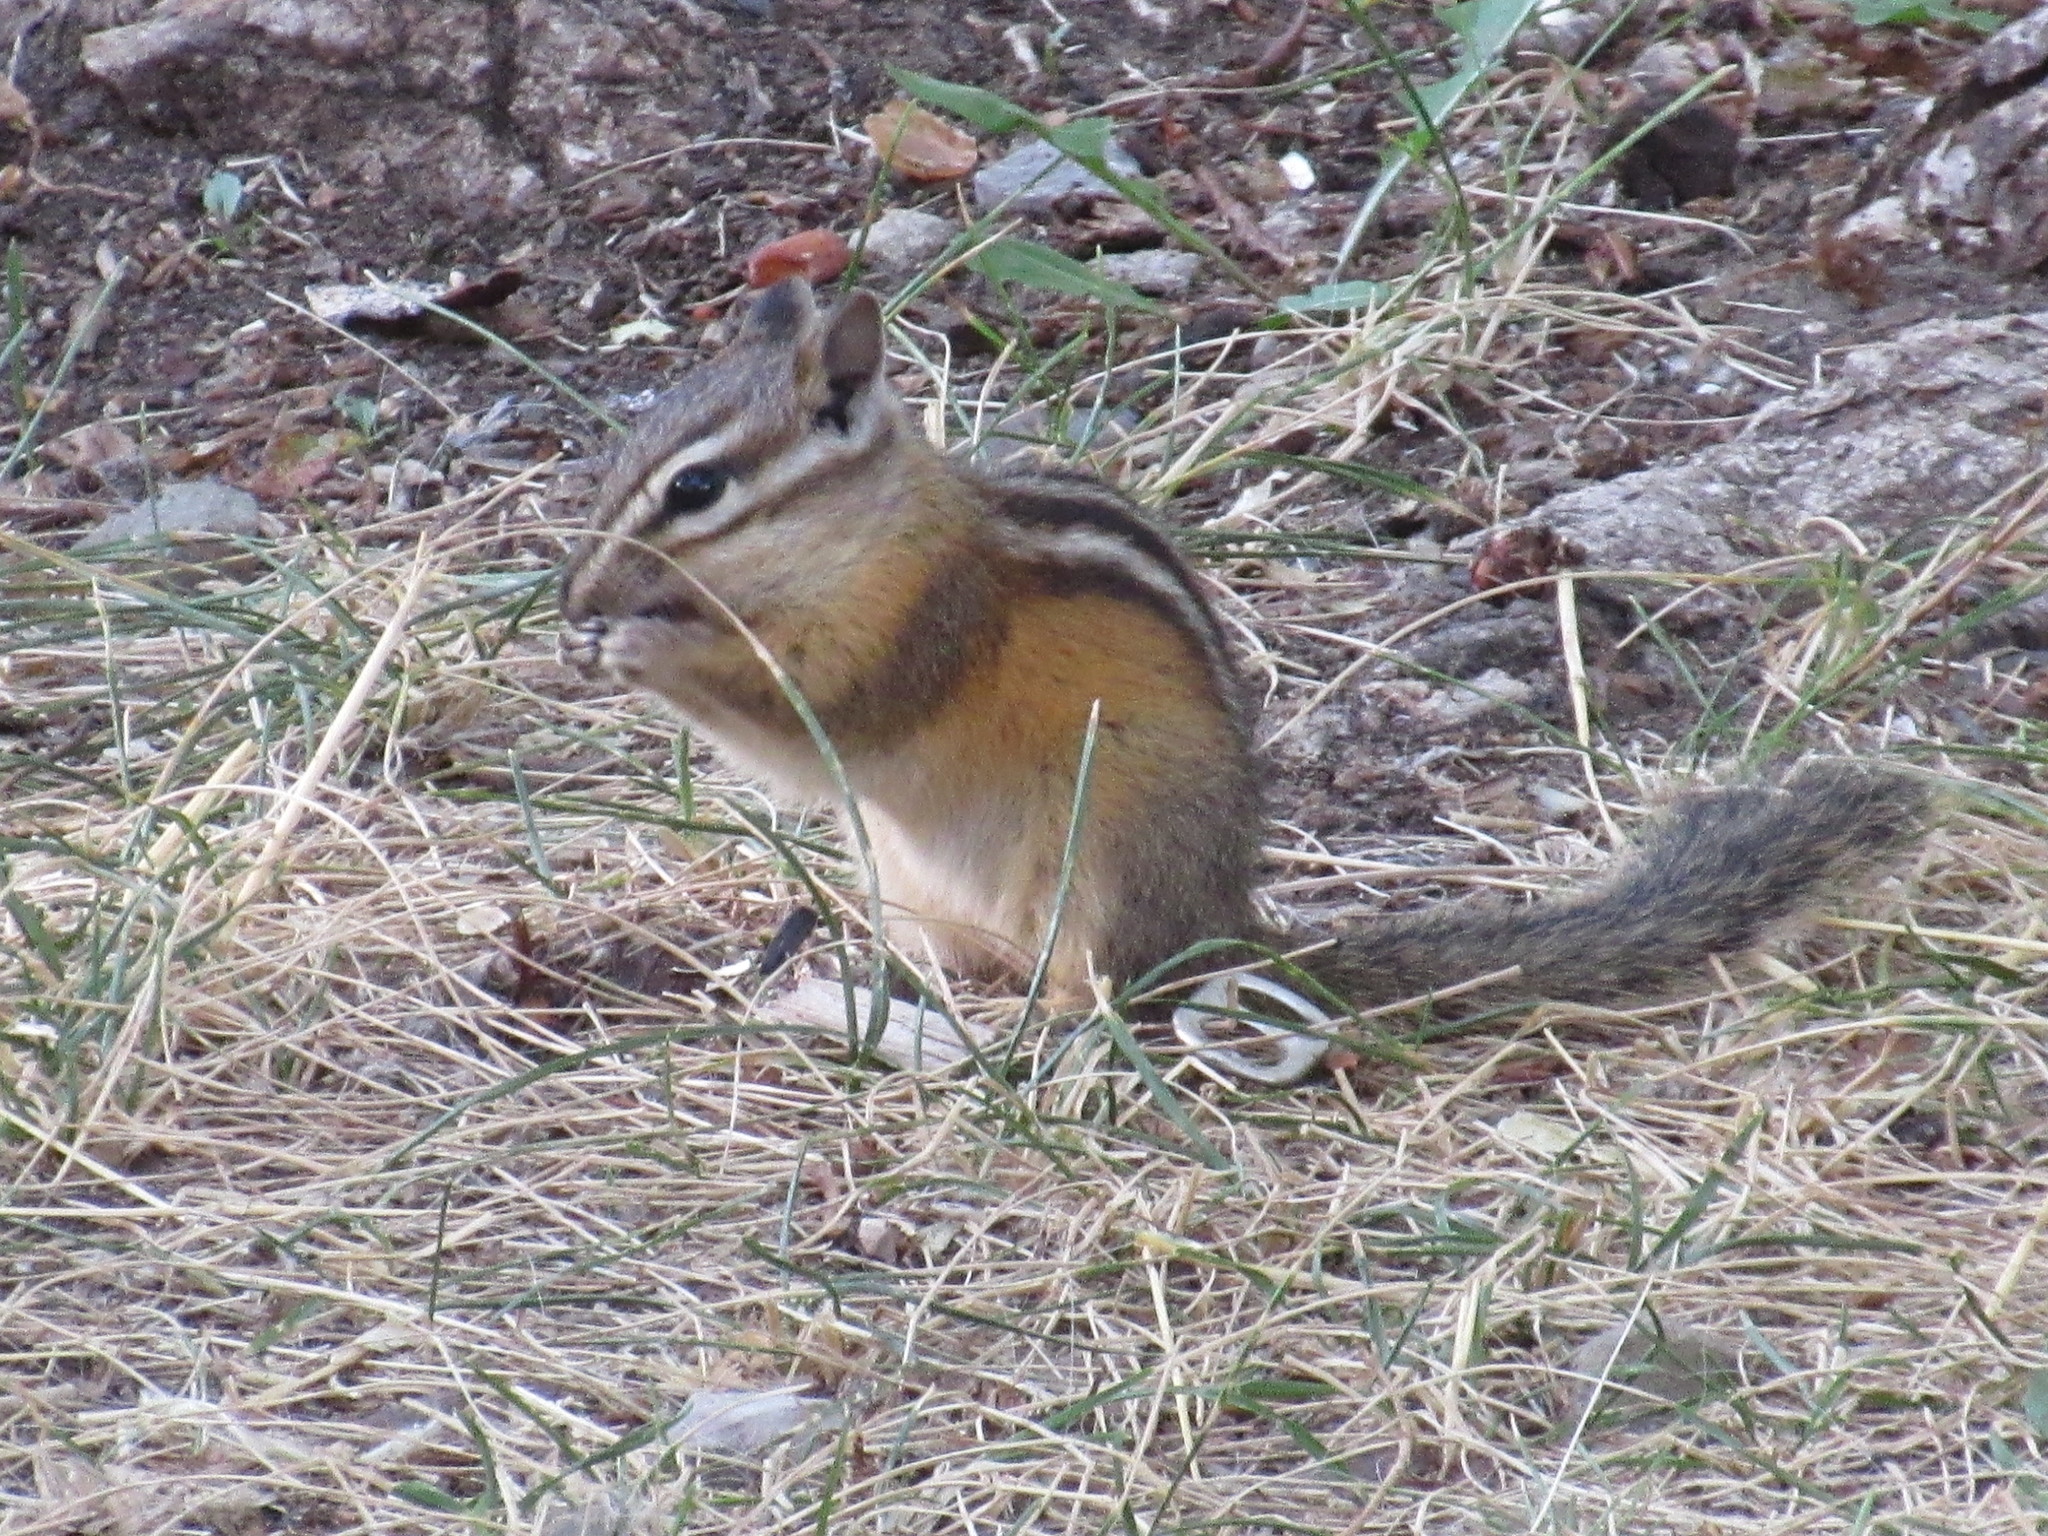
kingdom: Animalia
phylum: Chordata
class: Mammalia
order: Rodentia
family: Sciuridae
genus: Tamias
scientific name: Tamias minimus
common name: Least chipmunk
